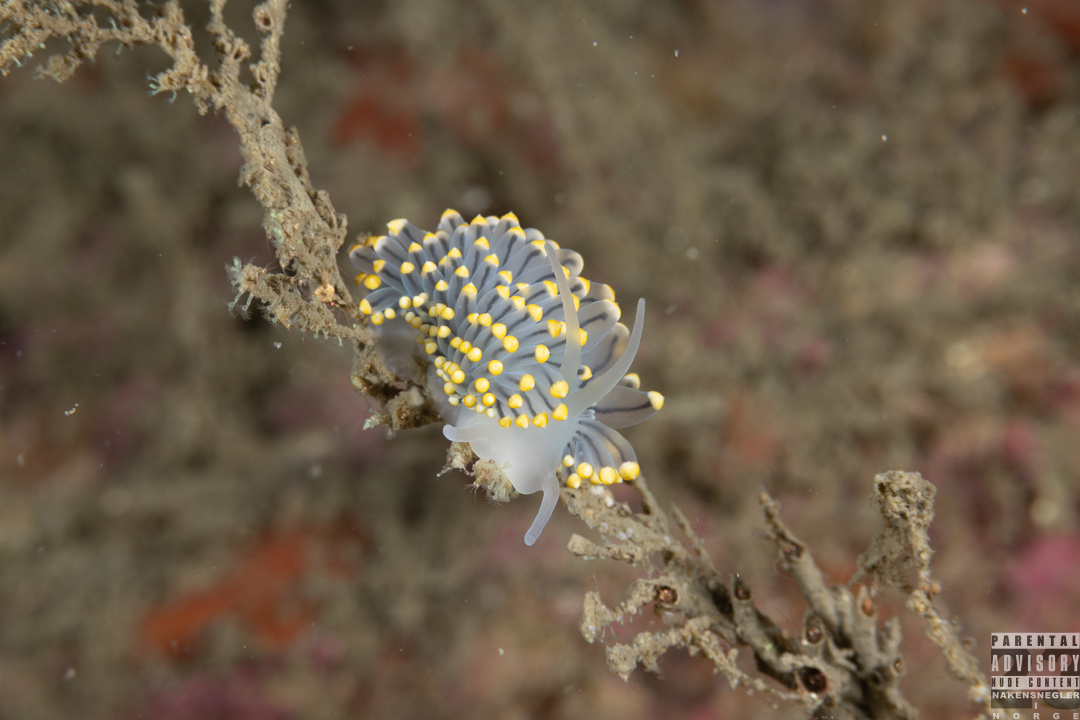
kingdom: Animalia
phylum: Mollusca
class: Gastropoda
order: Nudibranchia
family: Eubranchidae
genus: Eubranchus
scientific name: Eubranchus tricolor
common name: Painted balloon aeolis
